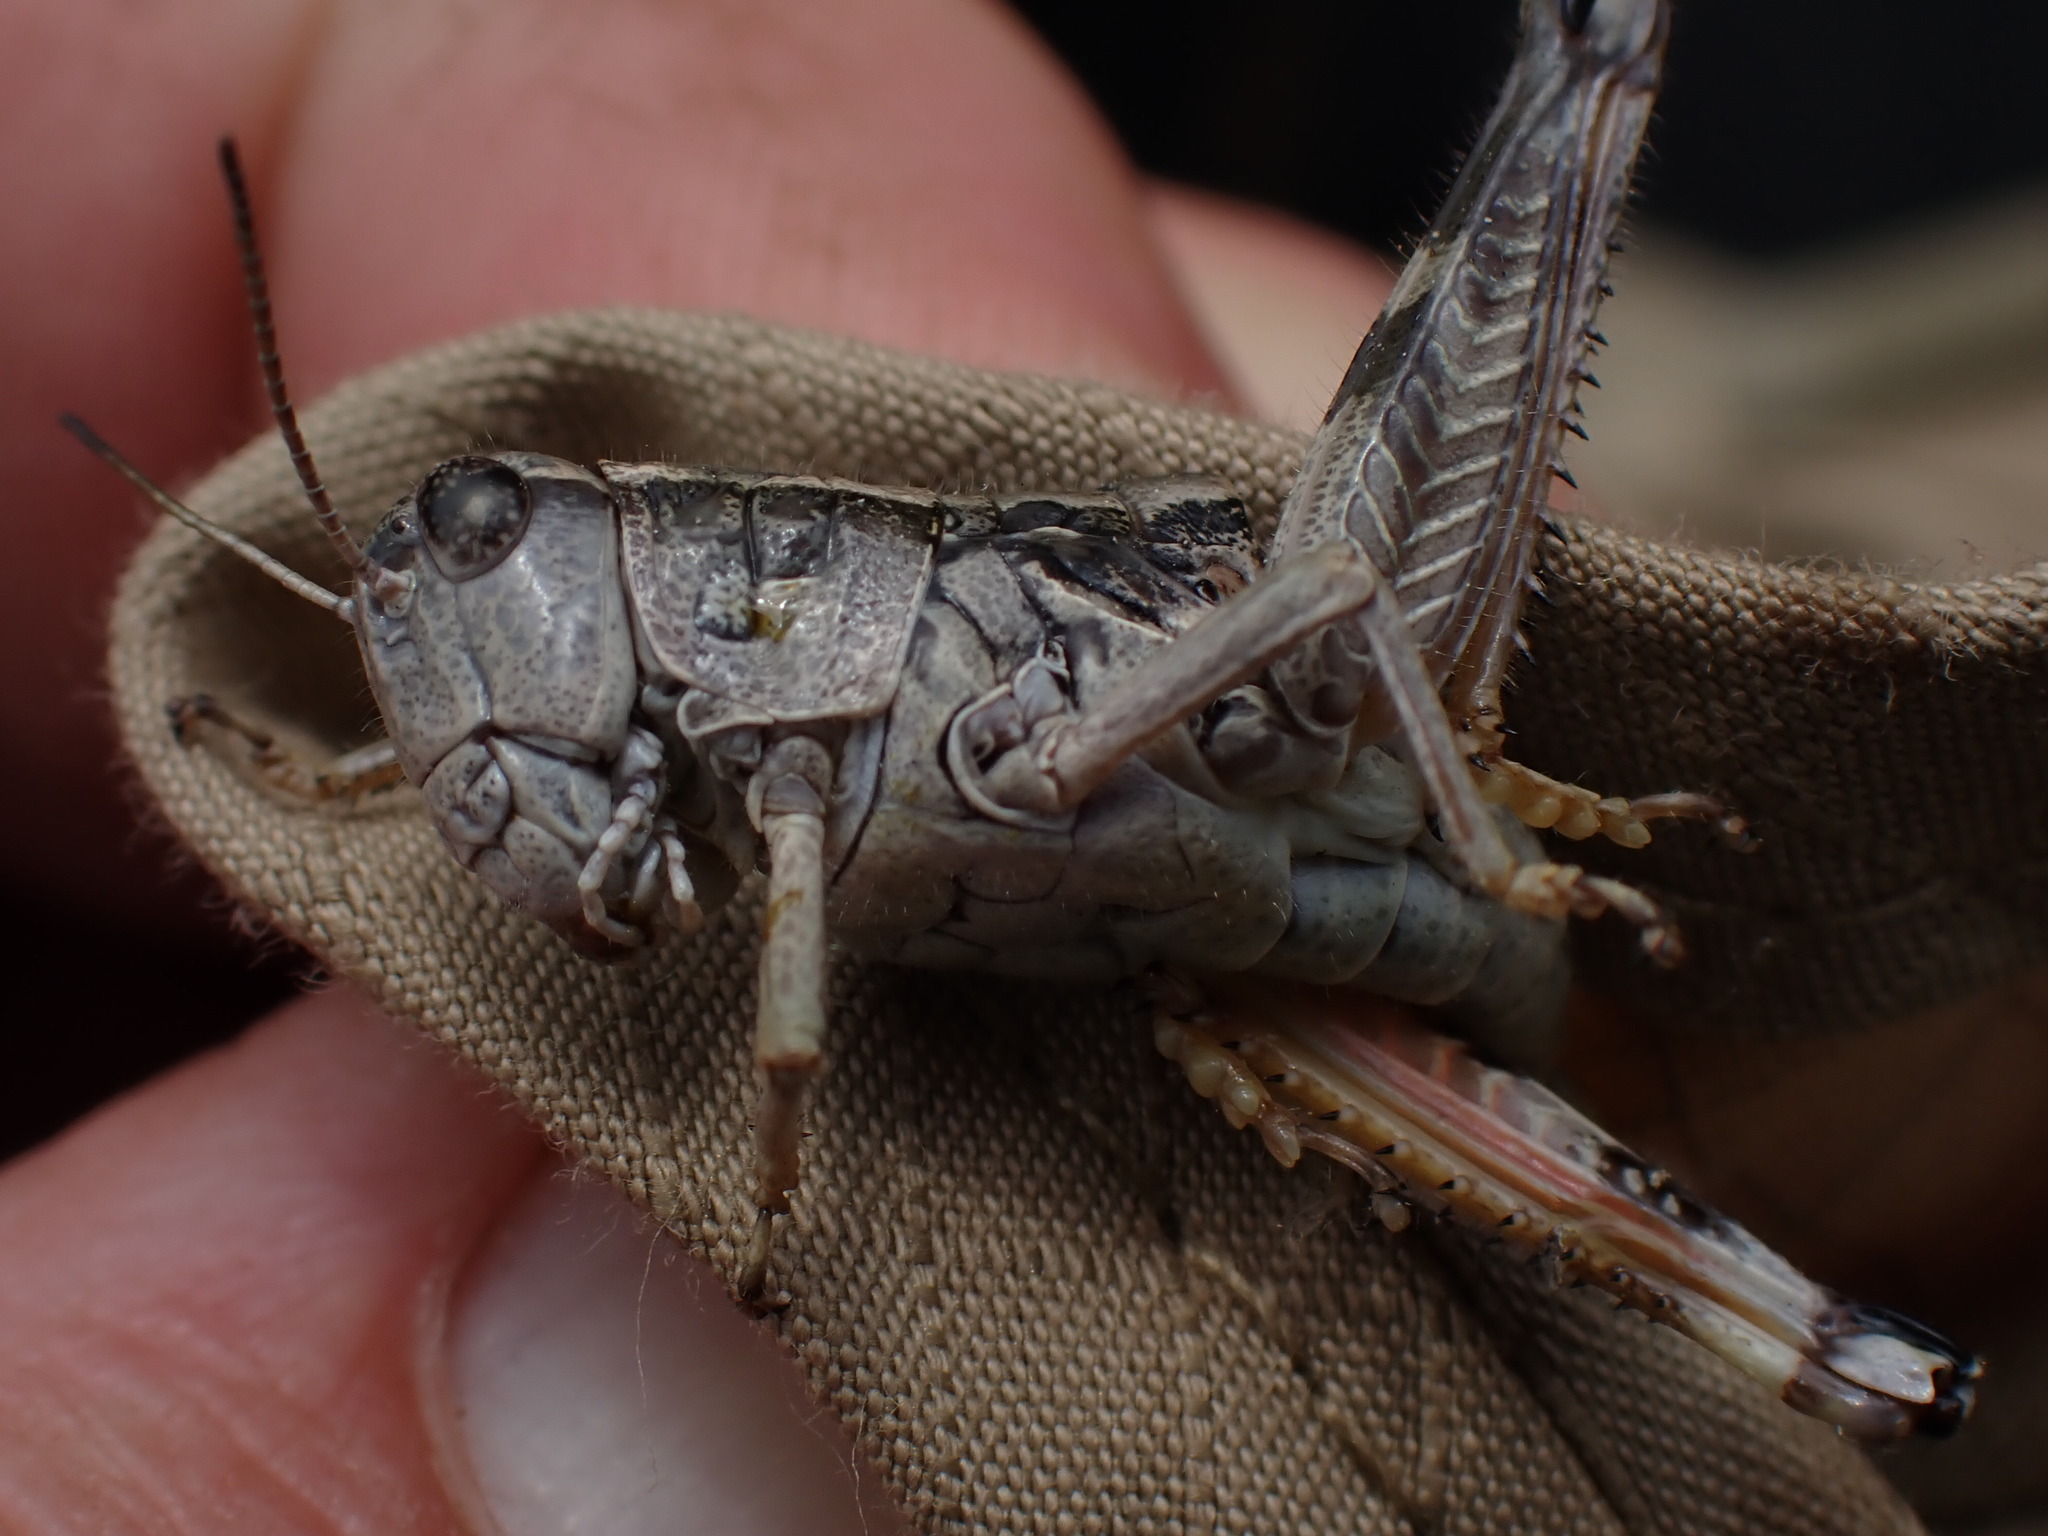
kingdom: Animalia
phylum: Arthropoda
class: Insecta
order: Orthoptera
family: Acrididae
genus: Buckellacris
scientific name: Buckellacris chilcotinae
